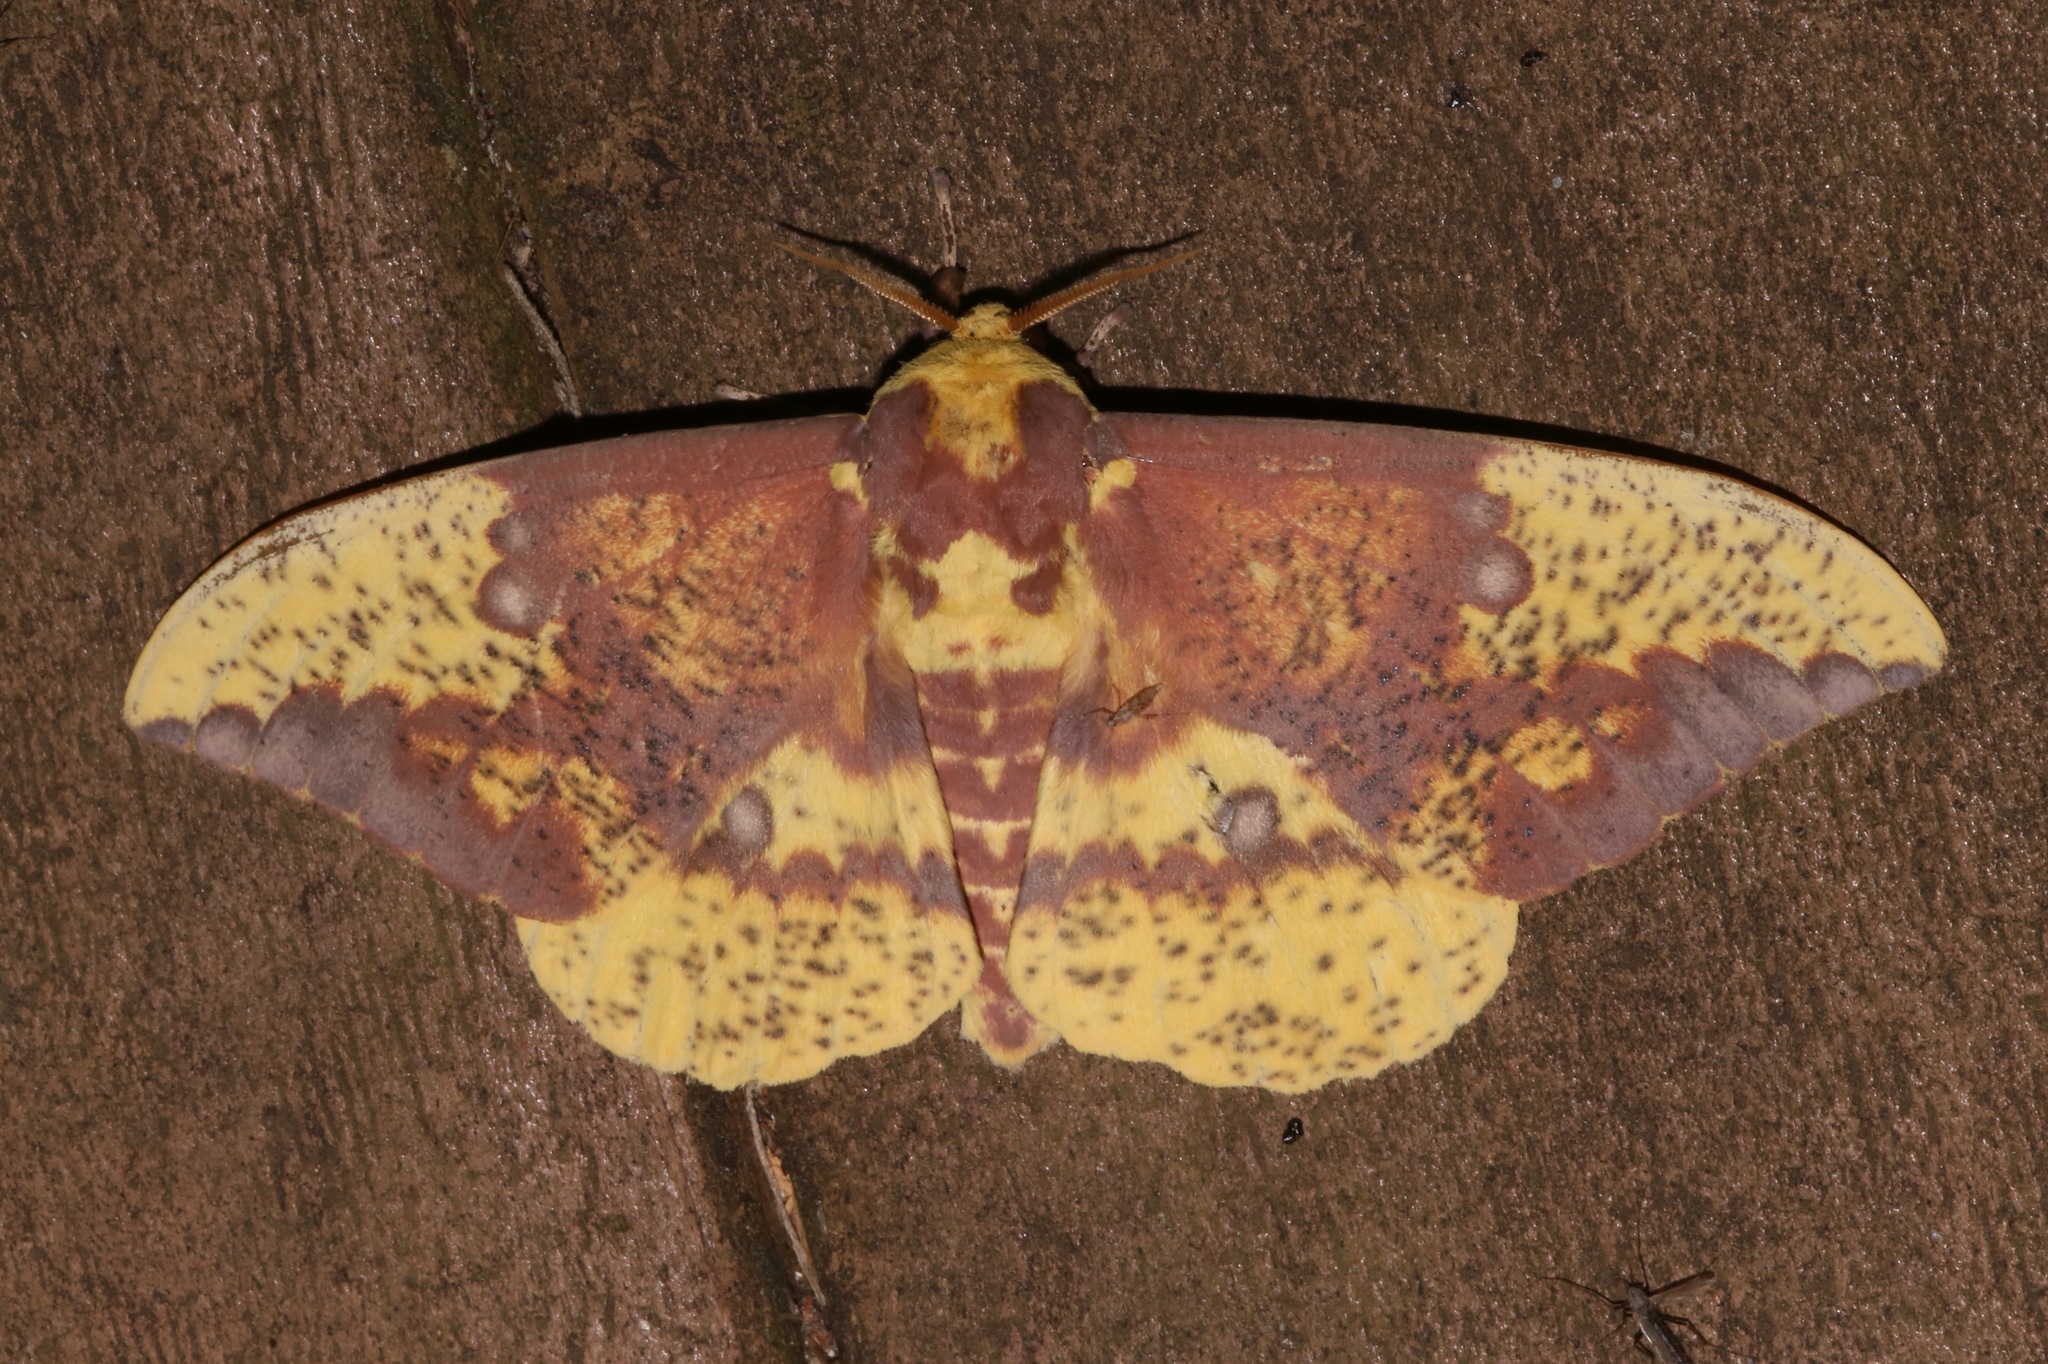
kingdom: Animalia
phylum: Arthropoda
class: Insecta
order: Lepidoptera
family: Saturniidae
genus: Eacles
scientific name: Eacles imperialis
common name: Imperial moth
